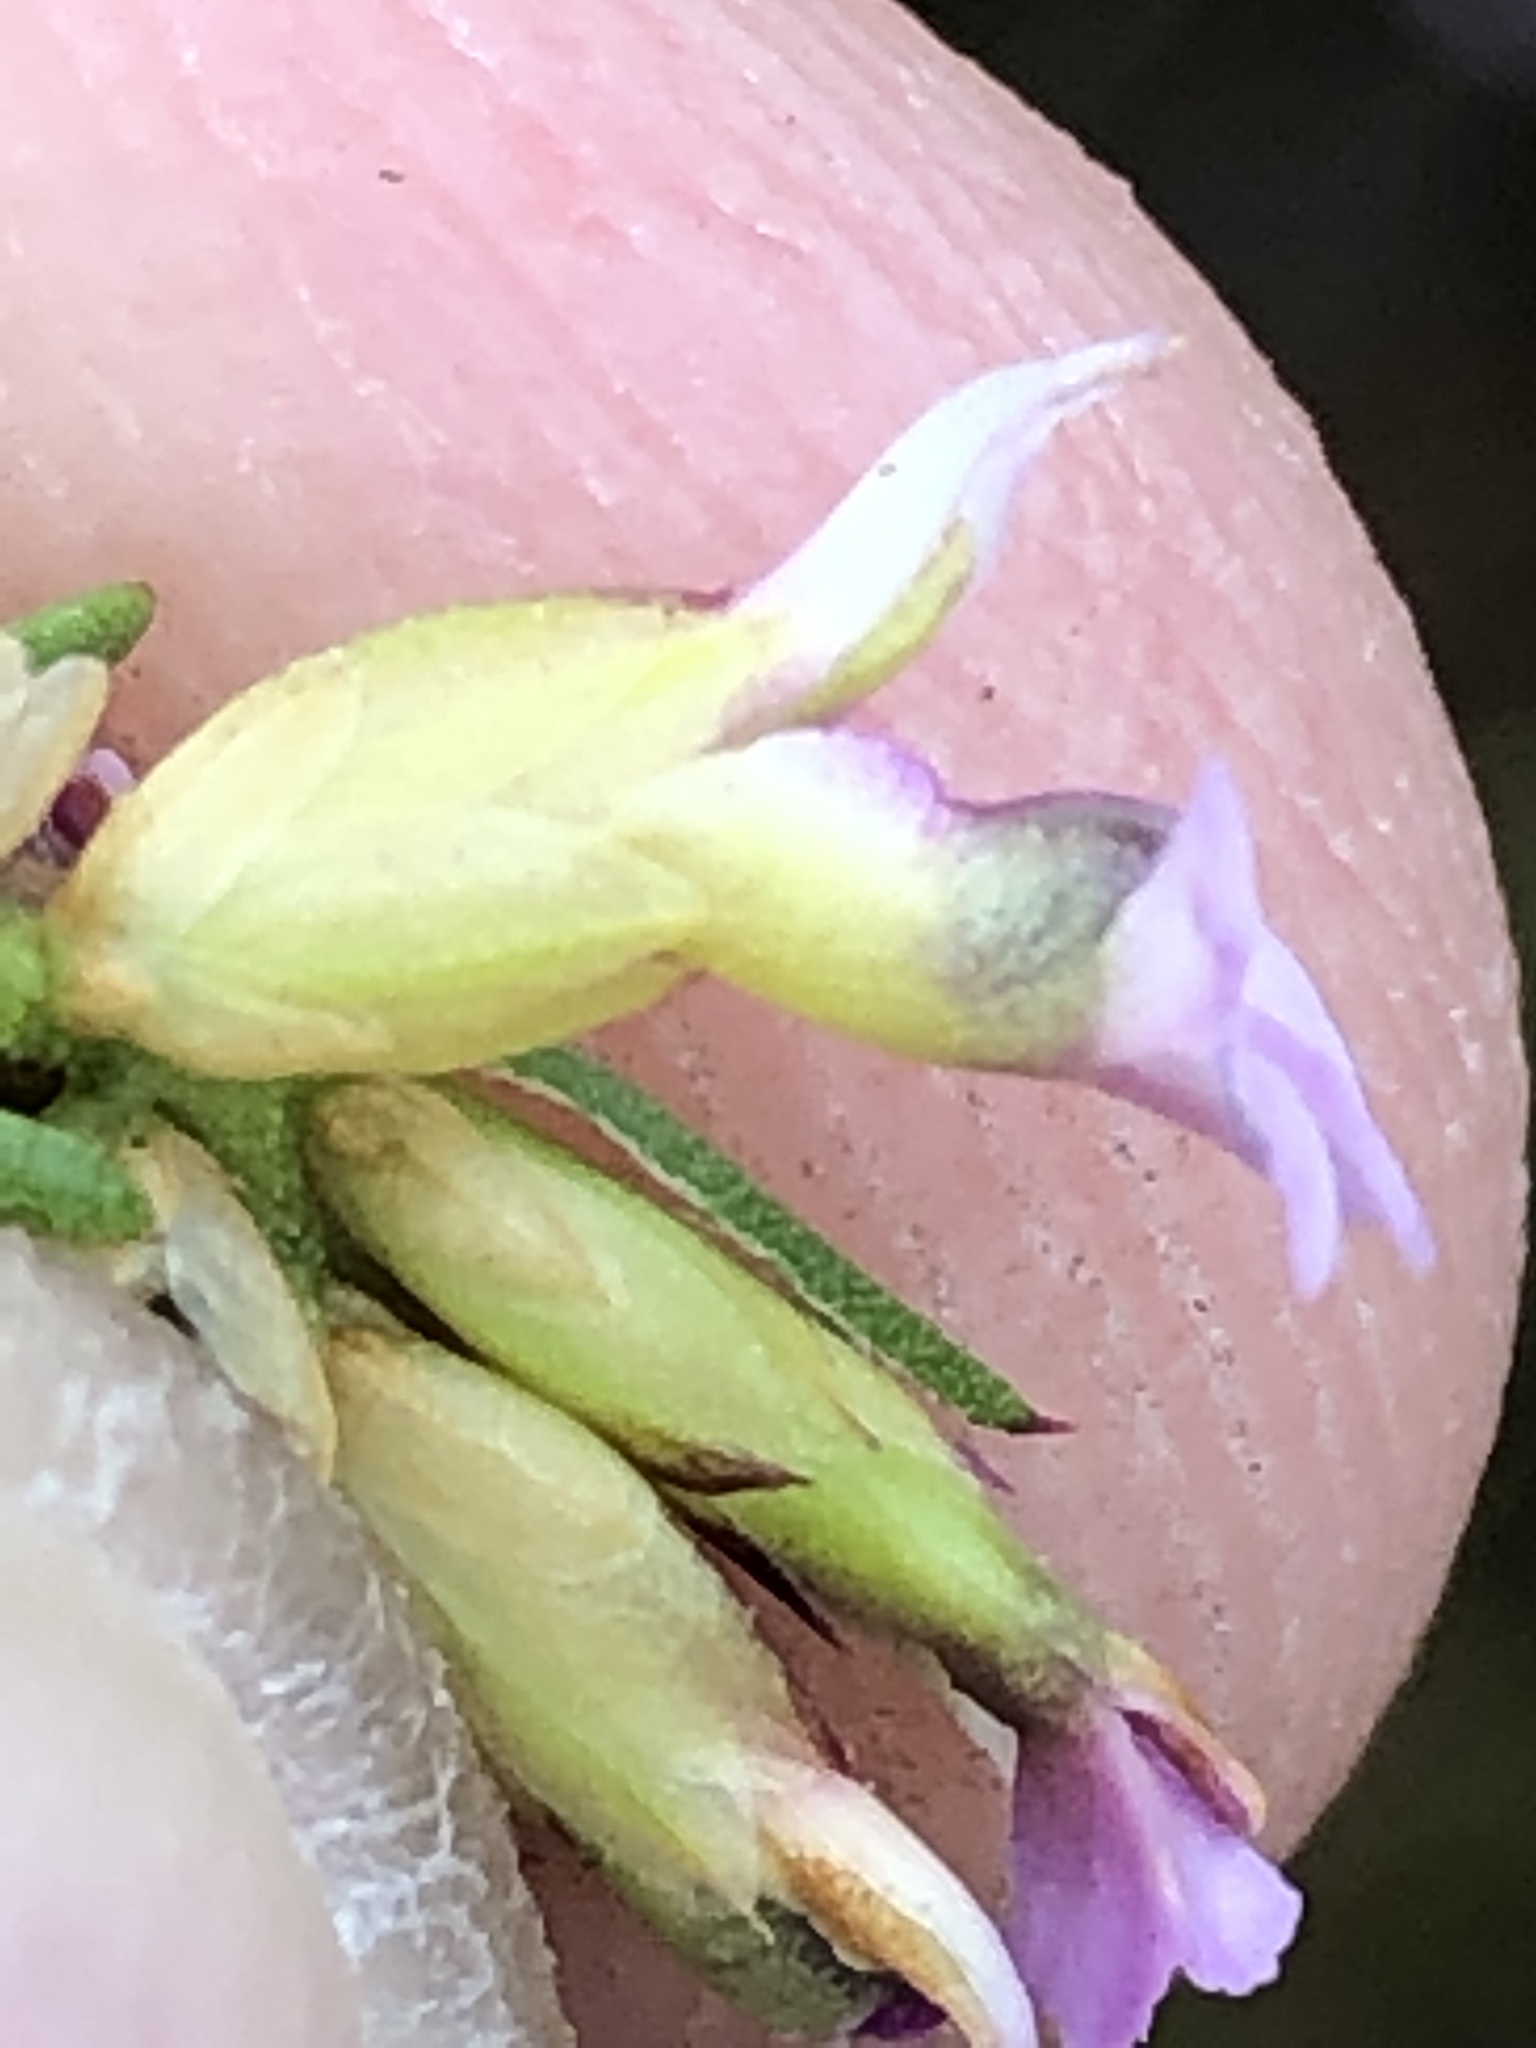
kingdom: Plantae
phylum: Tracheophyta
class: Magnoliopsida
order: Fabales
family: Polygalaceae
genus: Muraltia
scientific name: Muraltia knysnaensis
